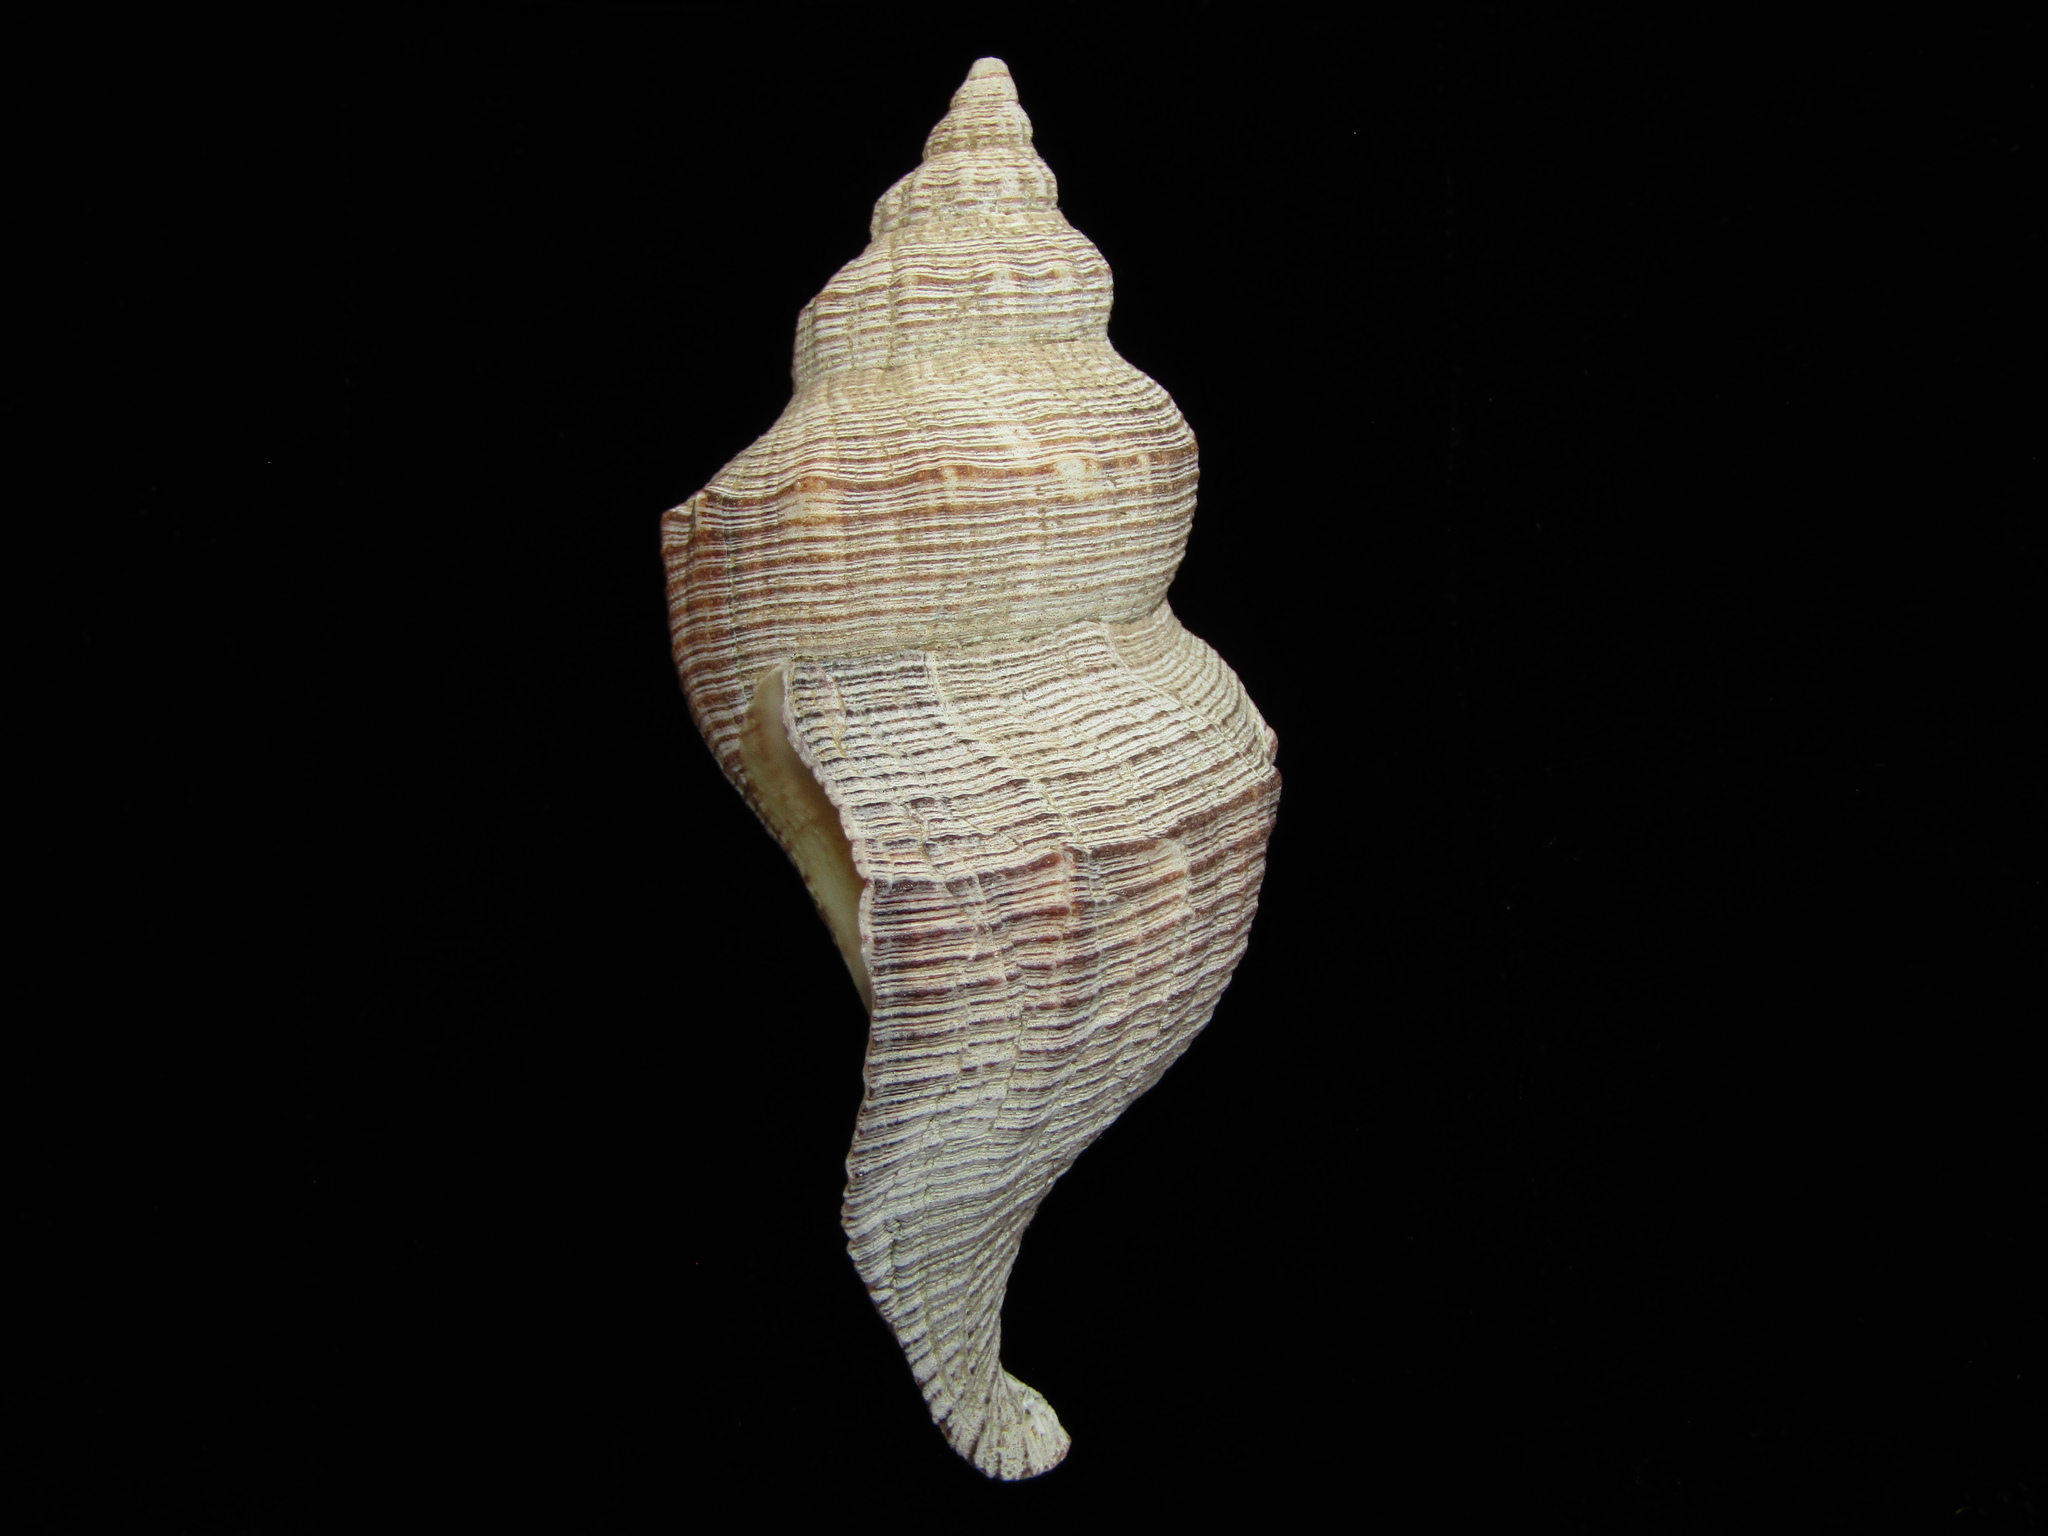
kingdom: Animalia
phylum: Mollusca
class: Gastropoda
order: Neogastropoda
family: Austrosiphonidae
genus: Penion
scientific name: Penion sulcatus
